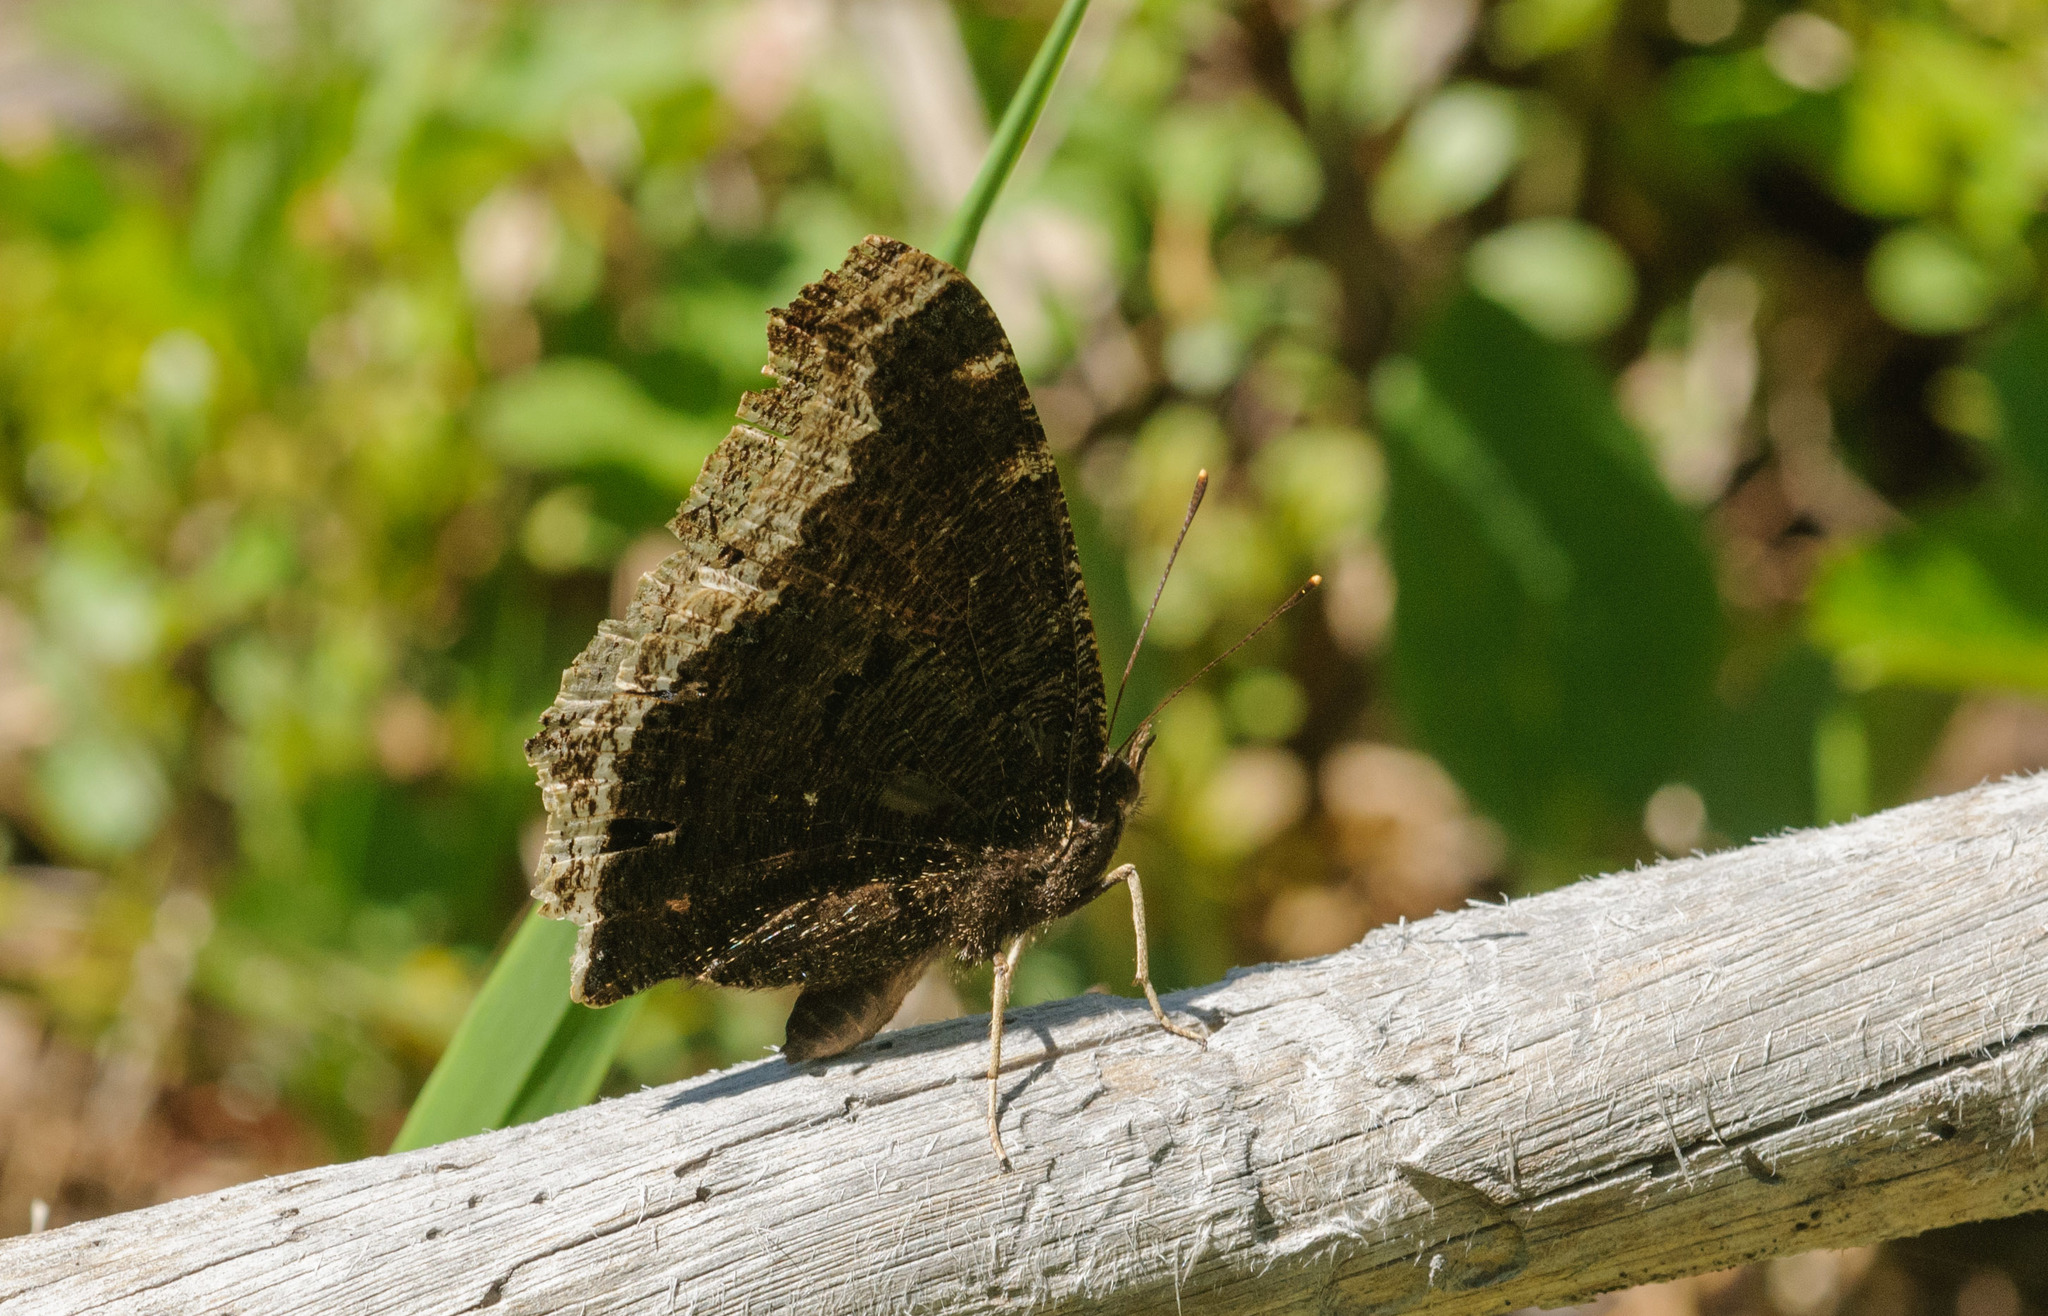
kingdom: Animalia
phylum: Arthropoda
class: Insecta
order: Lepidoptera
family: Nymphalidae
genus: Nymphalis
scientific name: Nymphalis antiopa
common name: Camberwell beauty
